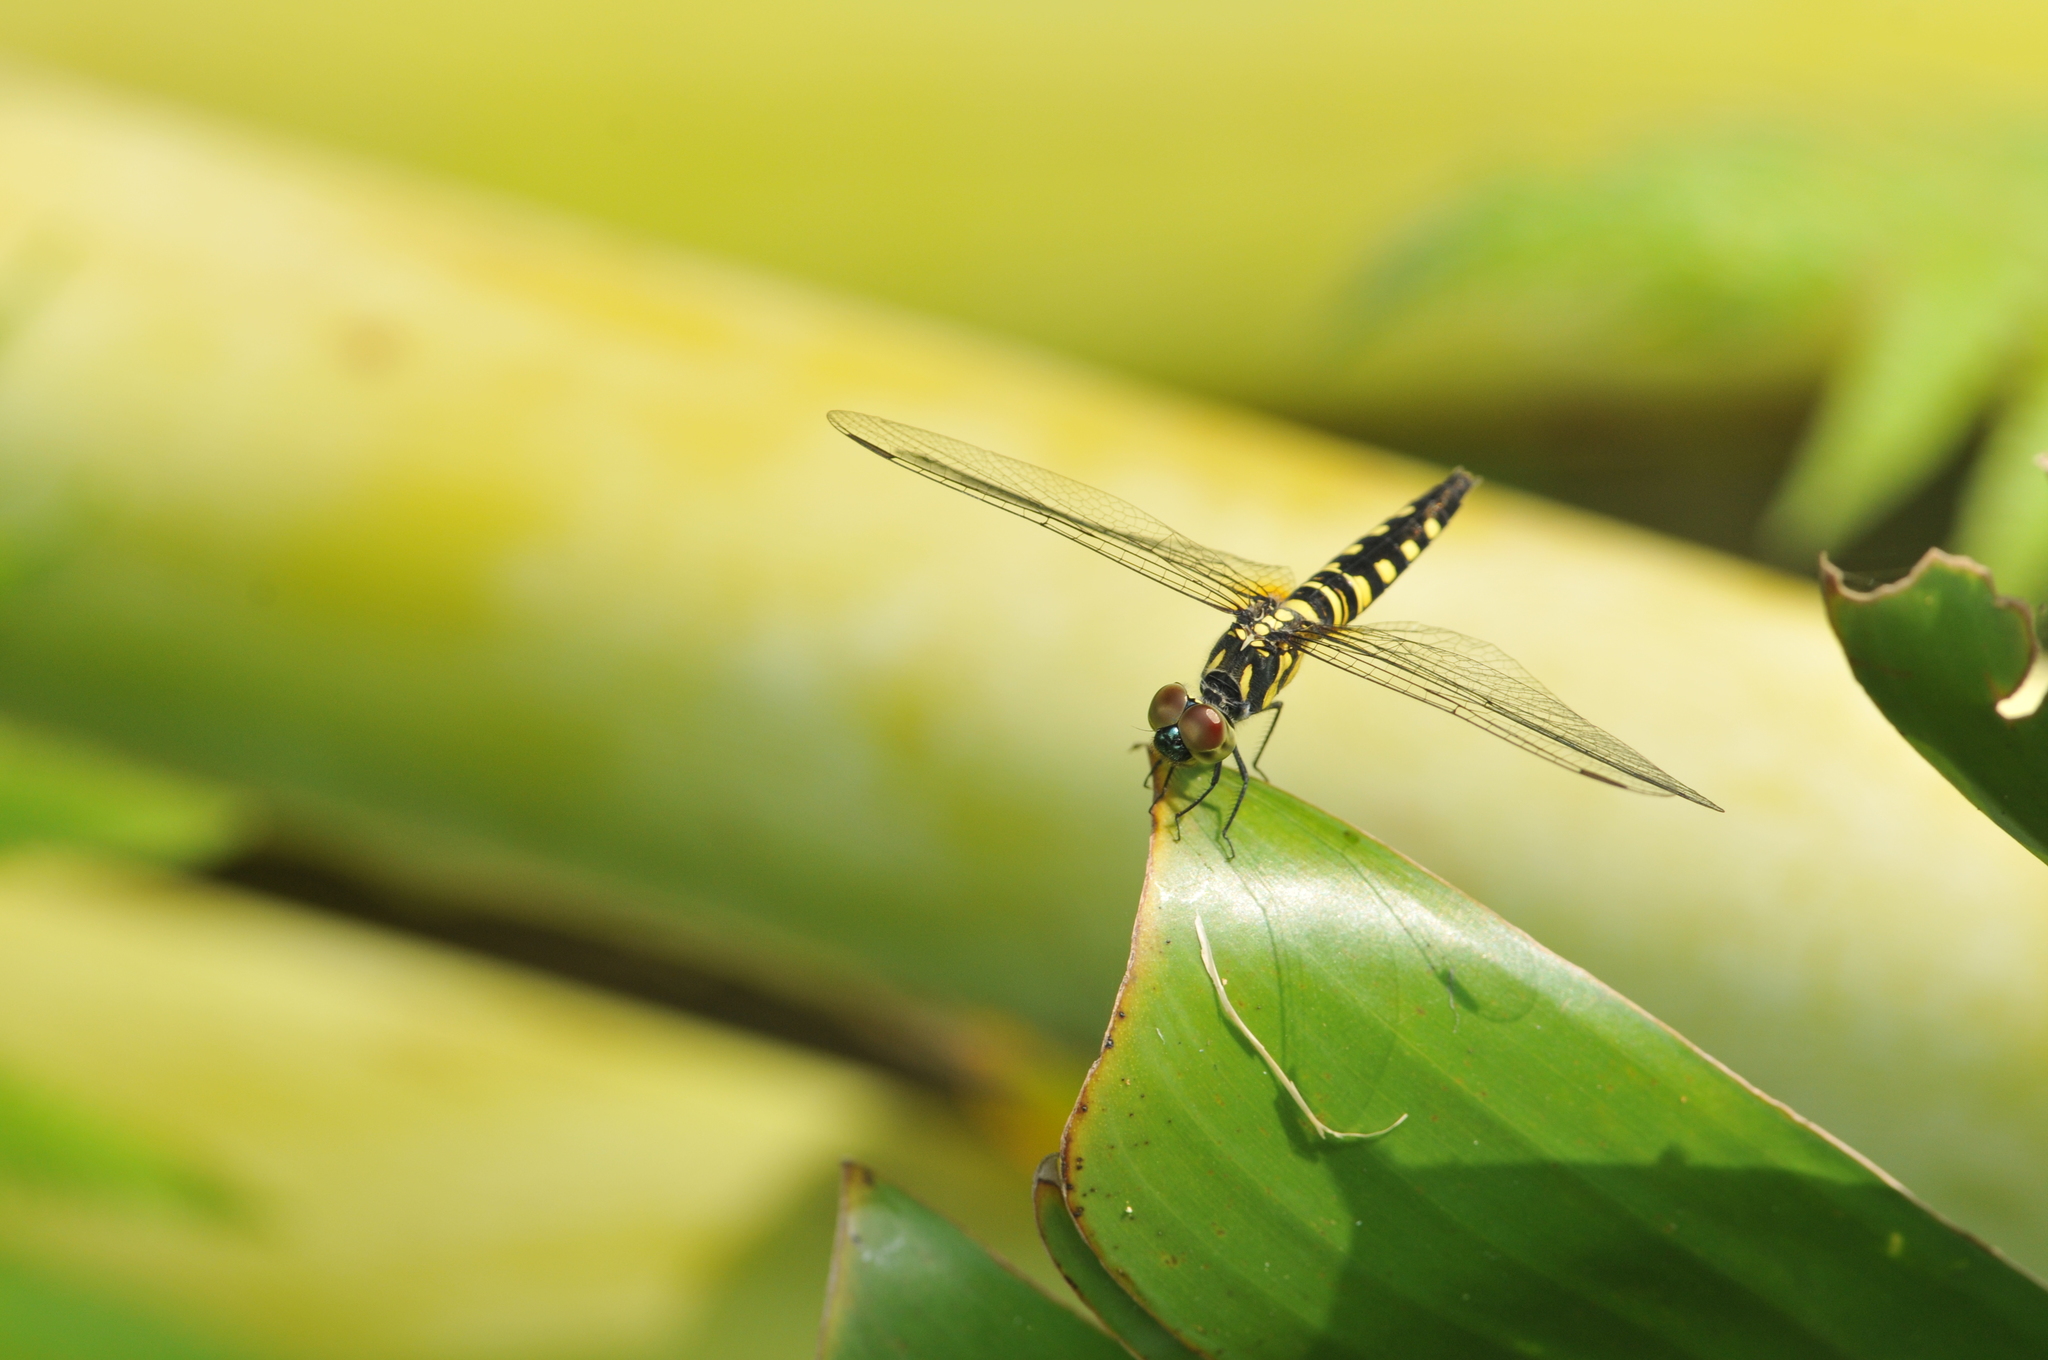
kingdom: Animalia
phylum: Arthropoda
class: Insecta
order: Odonata
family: Libellulidae
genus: Brachydiplax
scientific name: Brachydiplax chalybea
